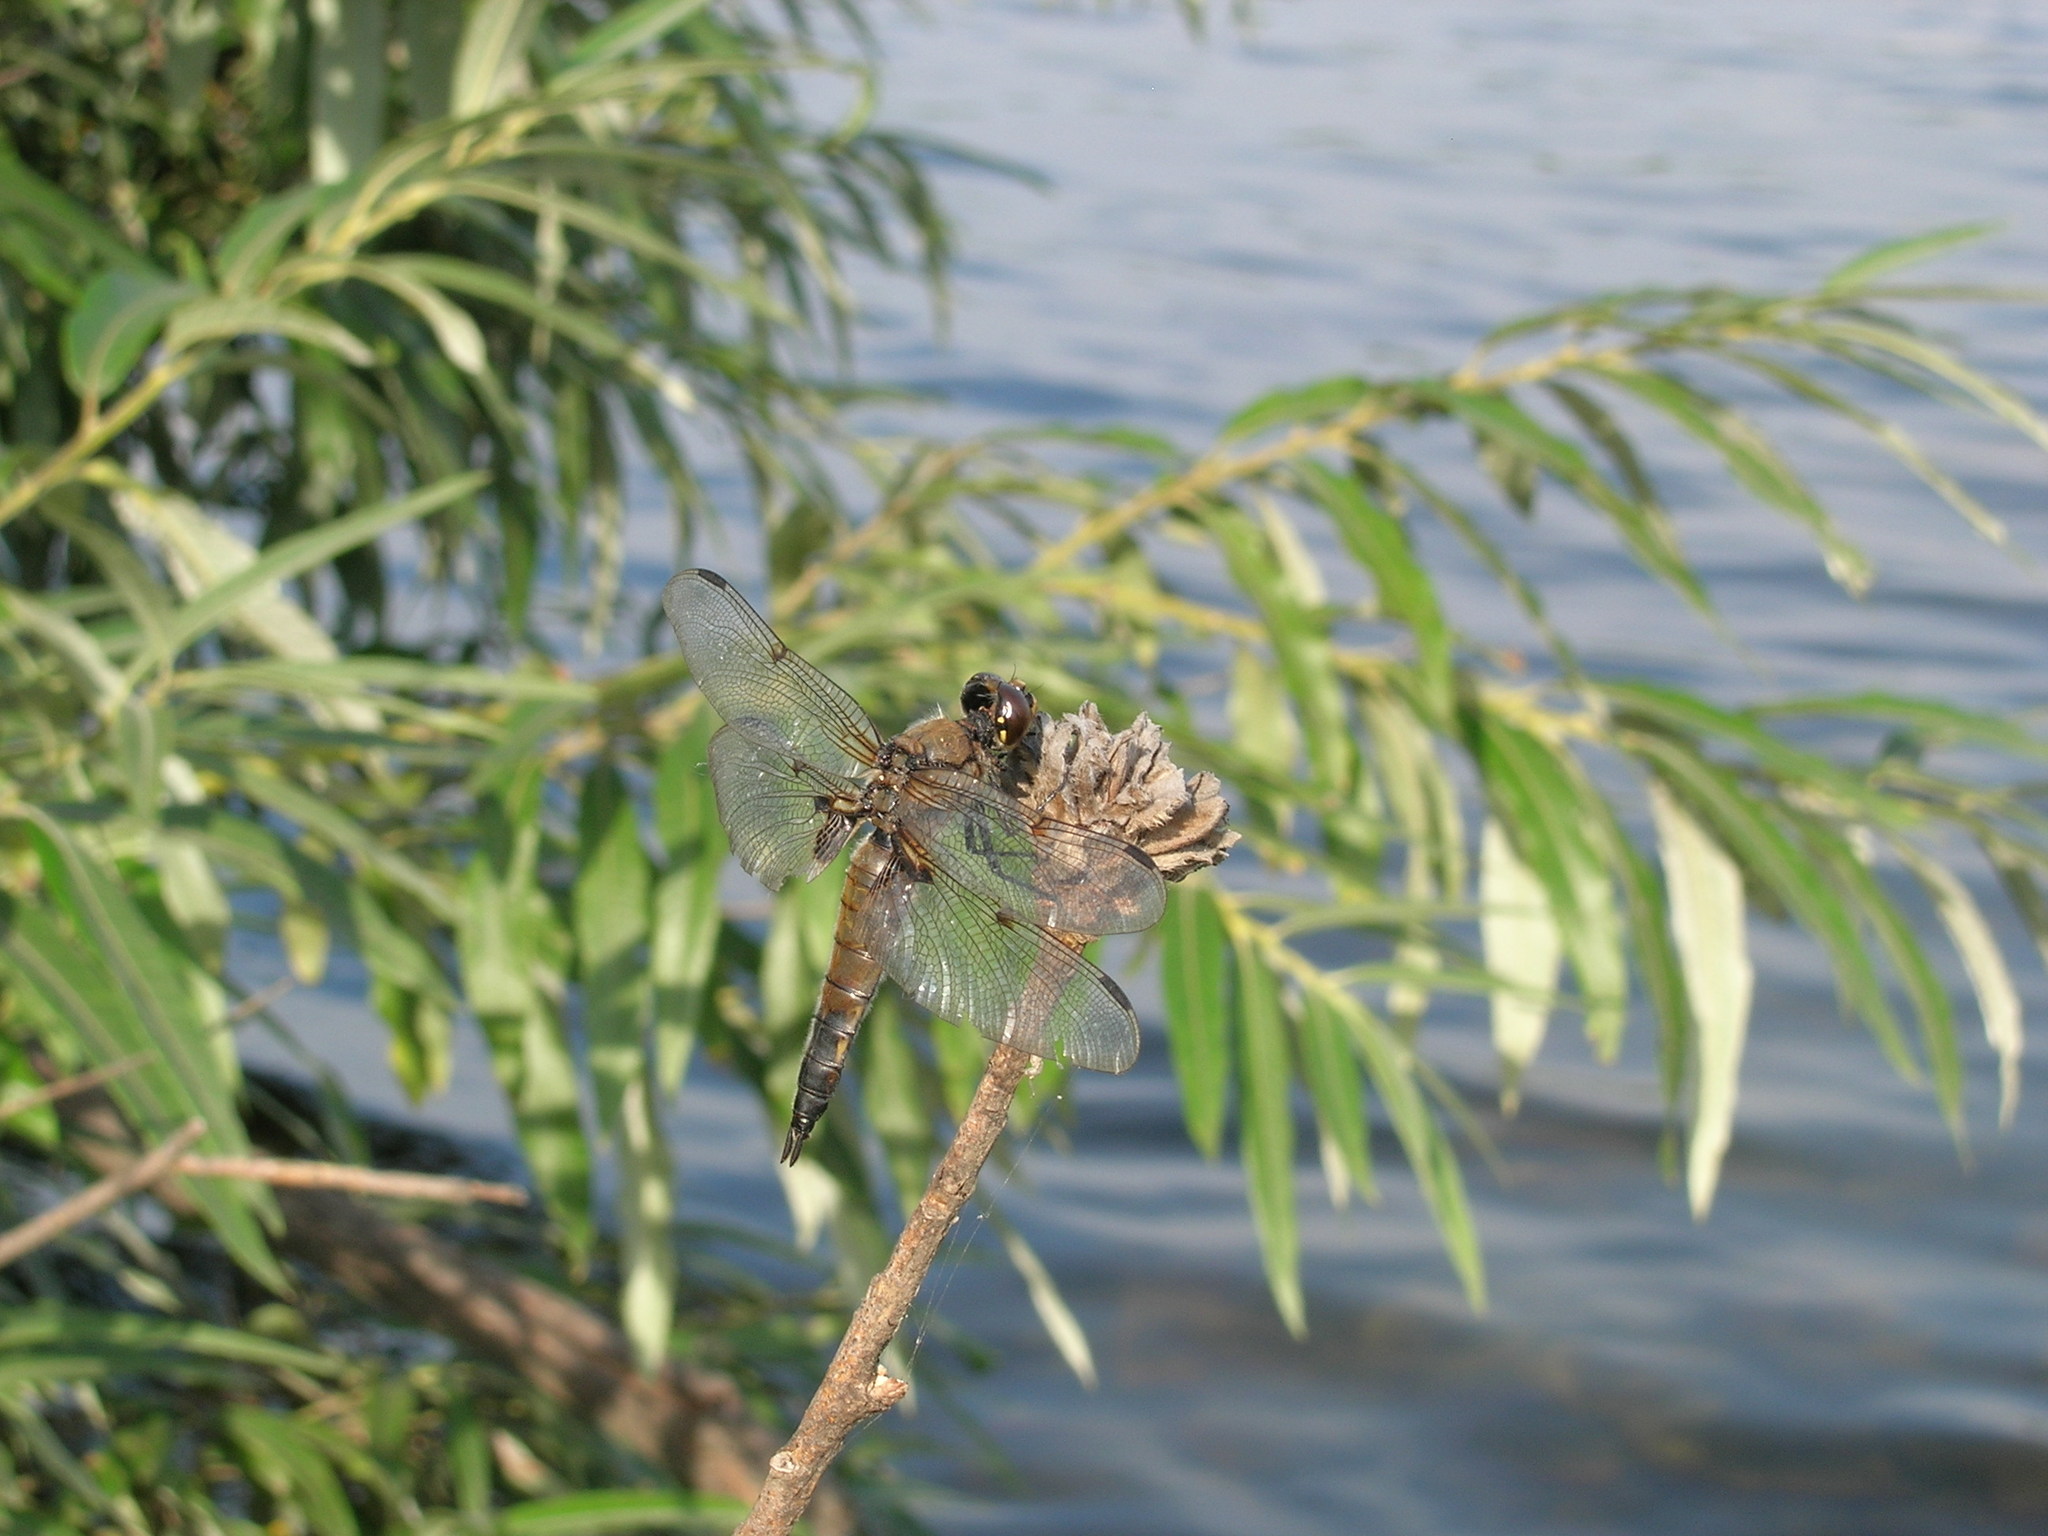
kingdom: Animalia
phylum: Arthropoda
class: Insecta
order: Odonata
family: Libellulidae
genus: Libellula
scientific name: Libellula quadrimaculata
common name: Four-spotted chaser
